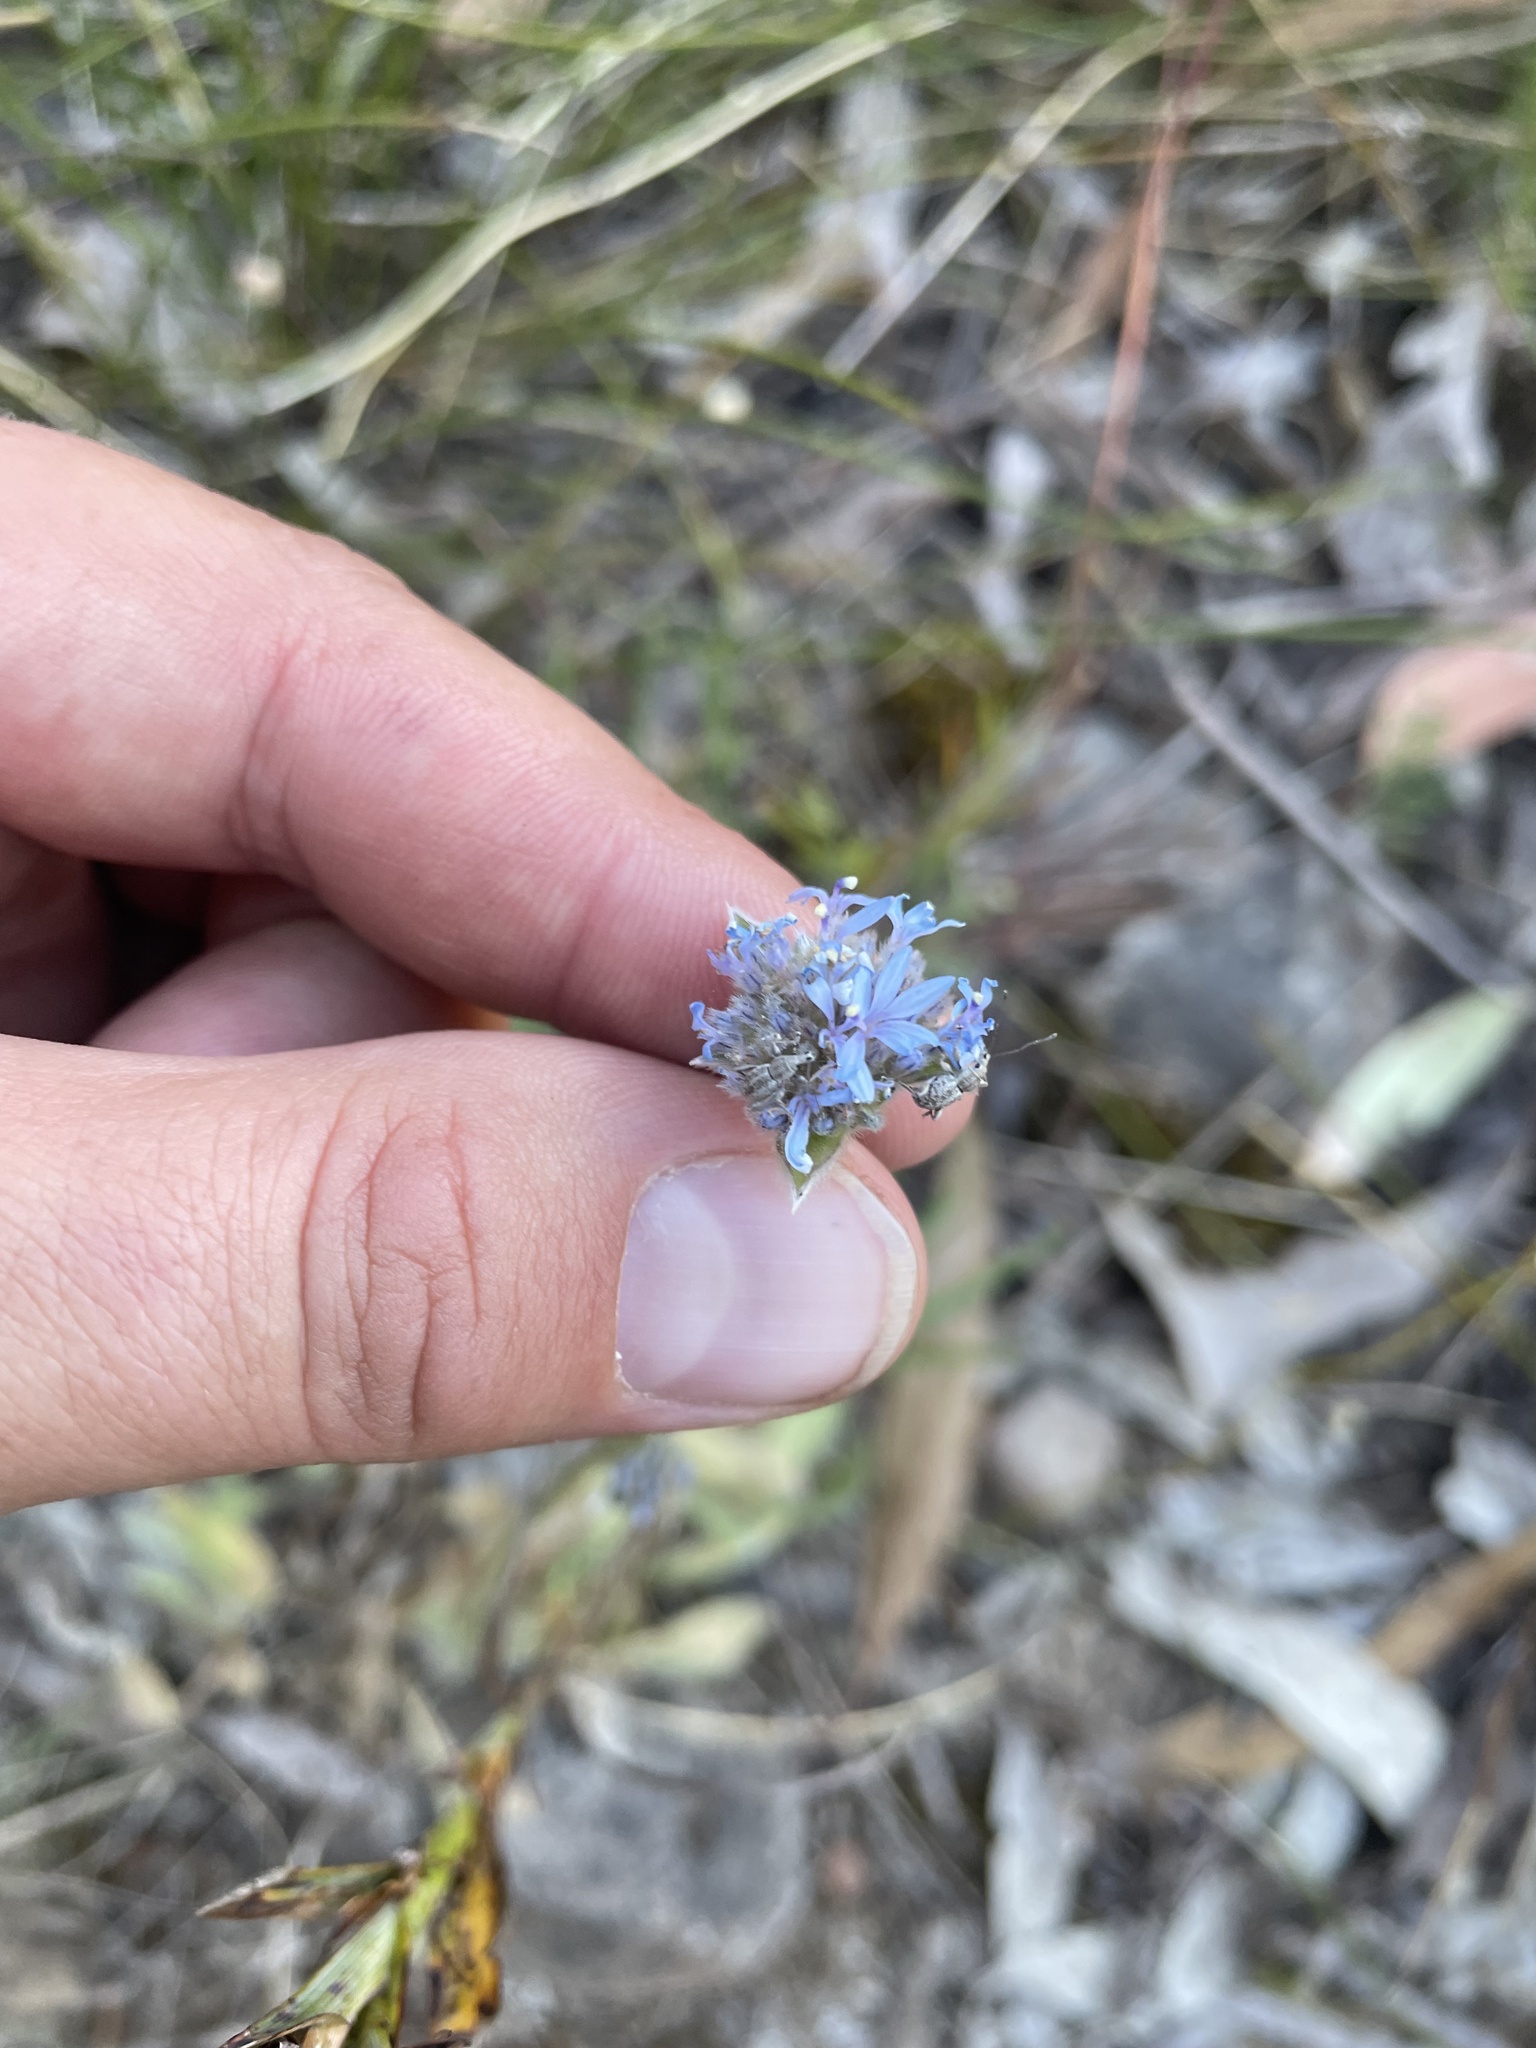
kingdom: Plantae
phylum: Tracheophyta
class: Magnoliopsida
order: Asterales
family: Goodeniaceae
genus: Brunonia
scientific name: Brunonia australis
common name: Blue pincushion
